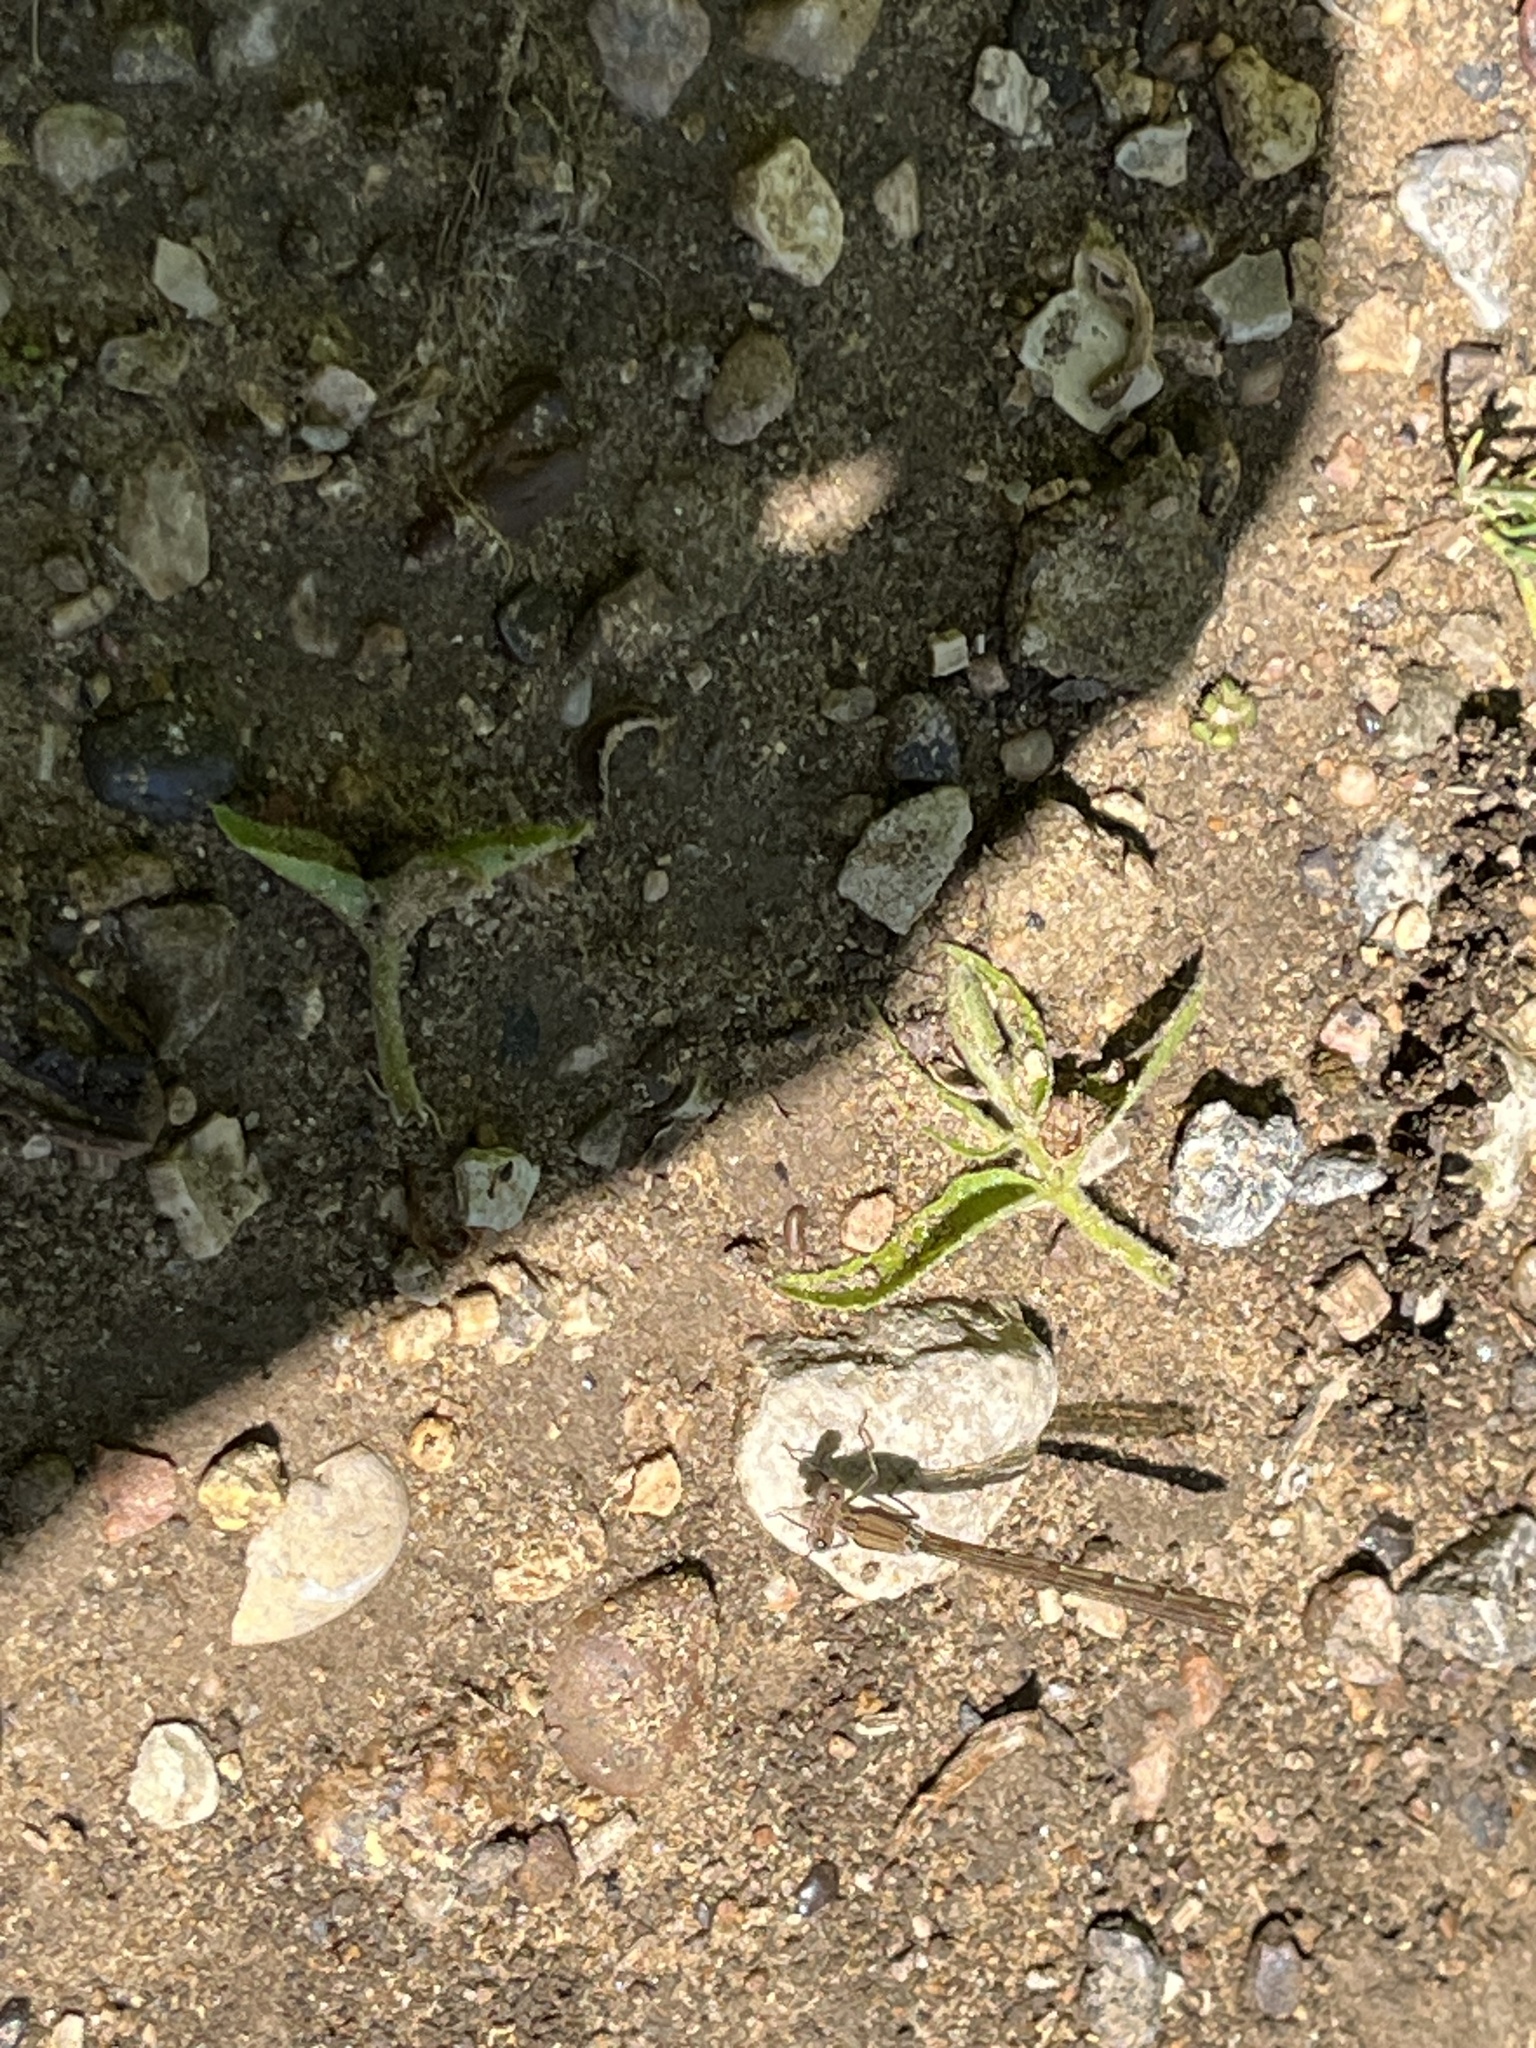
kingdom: Animalia
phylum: Arthropoda
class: Insecta
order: Odonata
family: Coenagrionidae
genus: Argia
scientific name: Argia sedula
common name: Blue-ringed dancer
